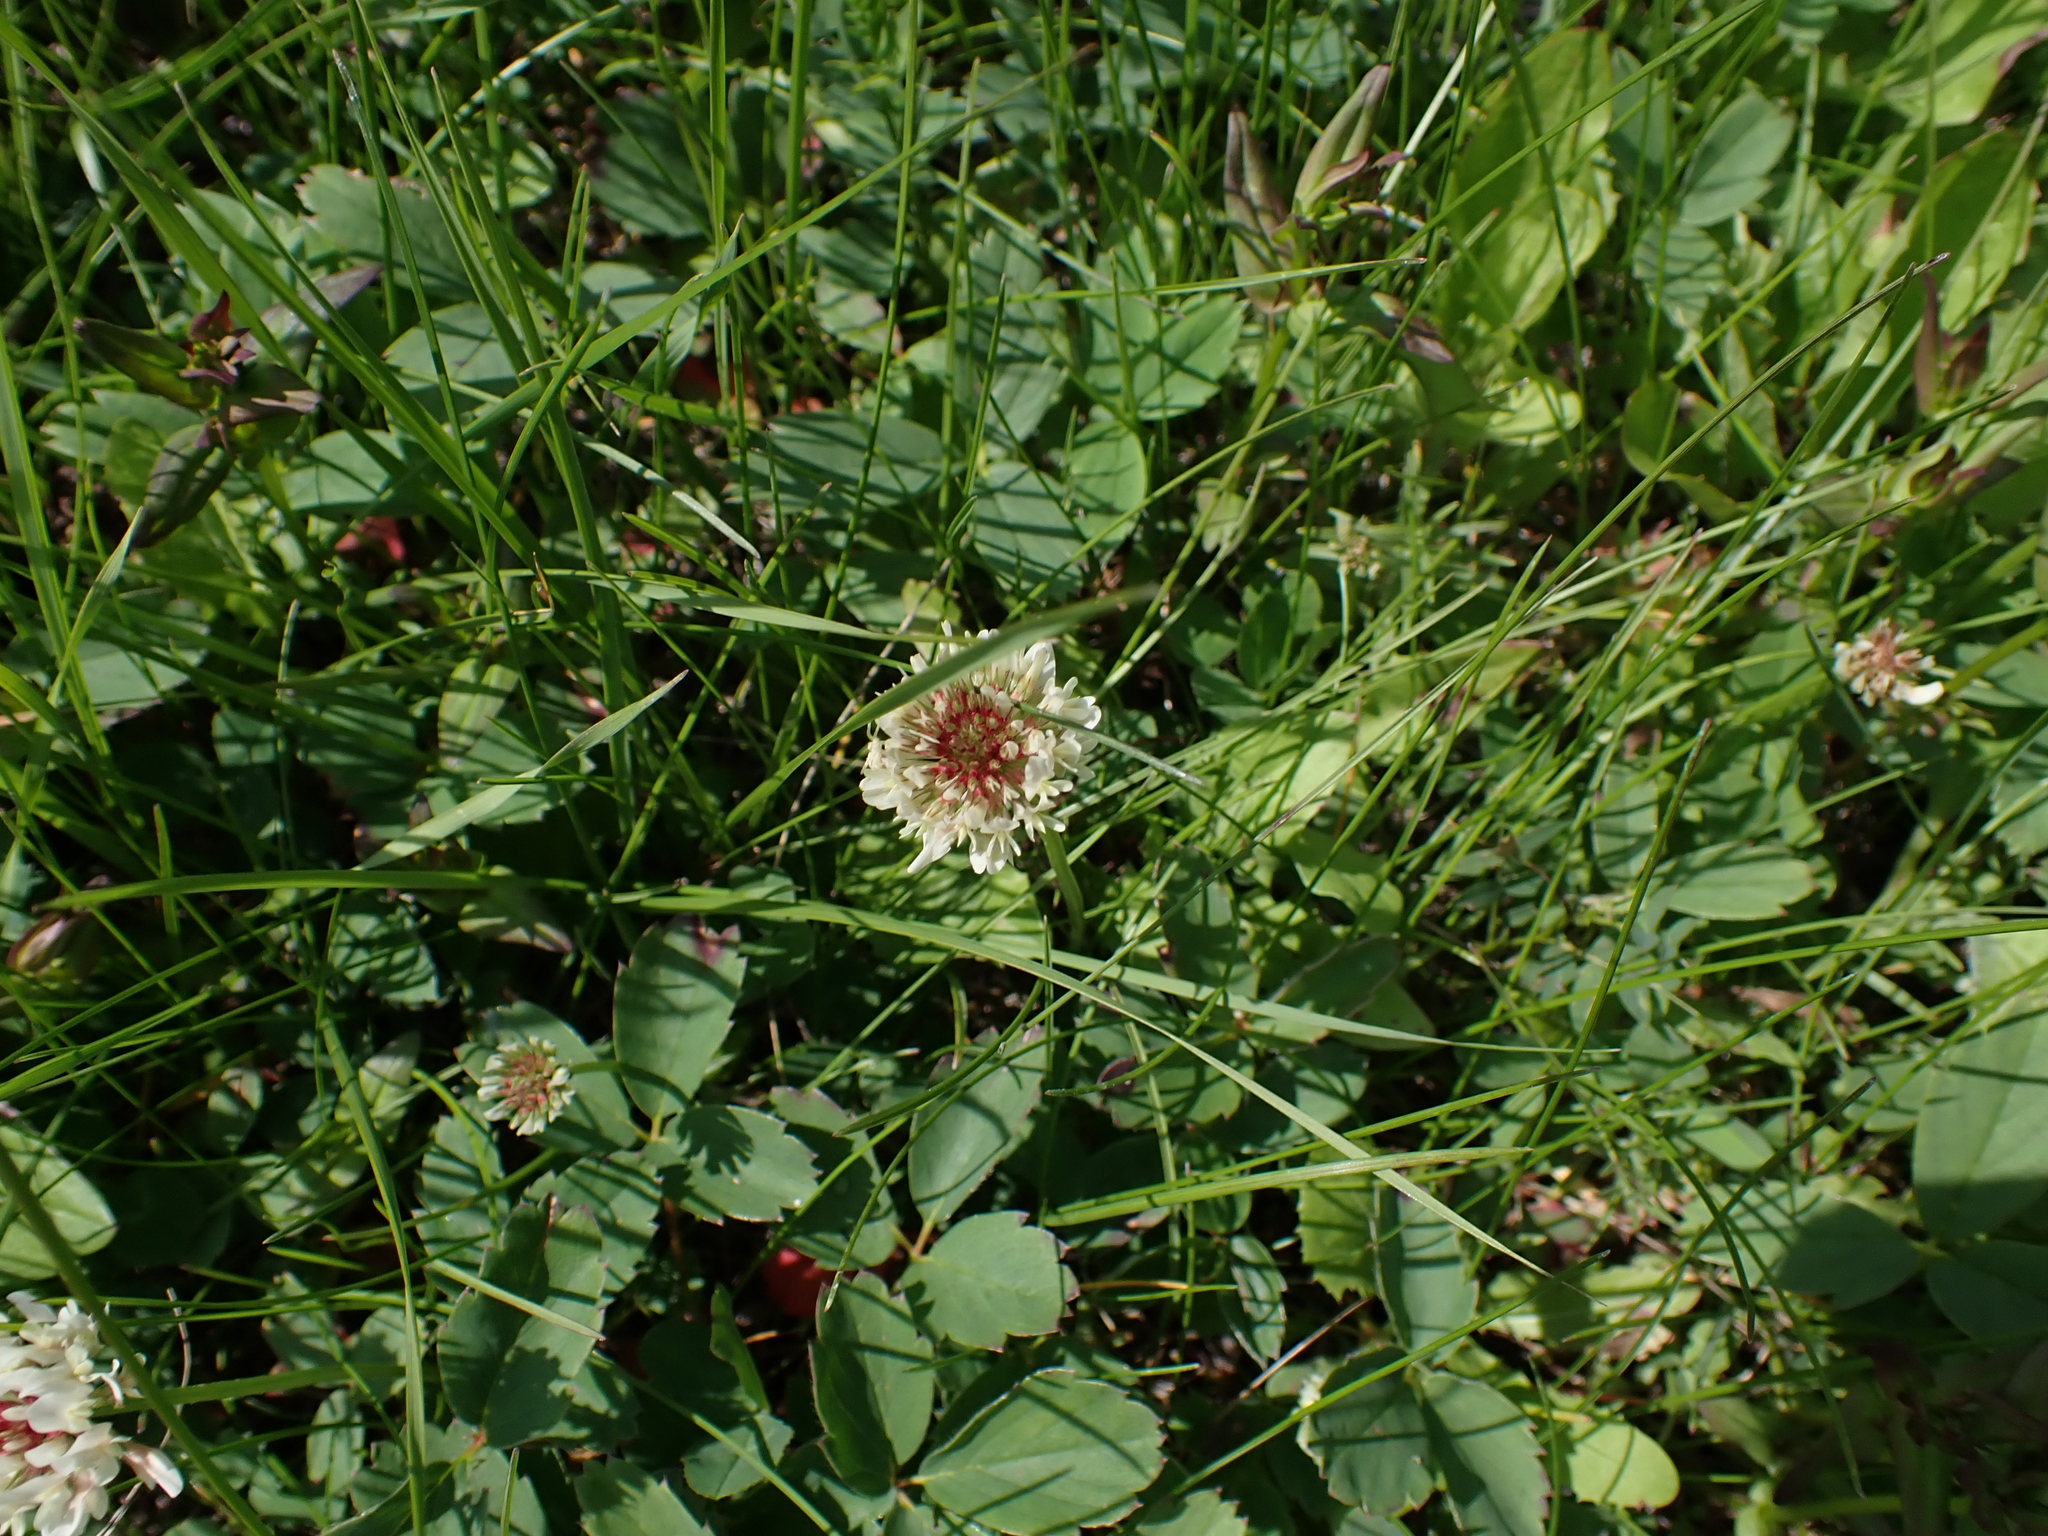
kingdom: Plantae
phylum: Tracheophyta
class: Magnoliopsida
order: Fabales
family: Fabaceae
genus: Trifolium
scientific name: Trifolium repens
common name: White clover
